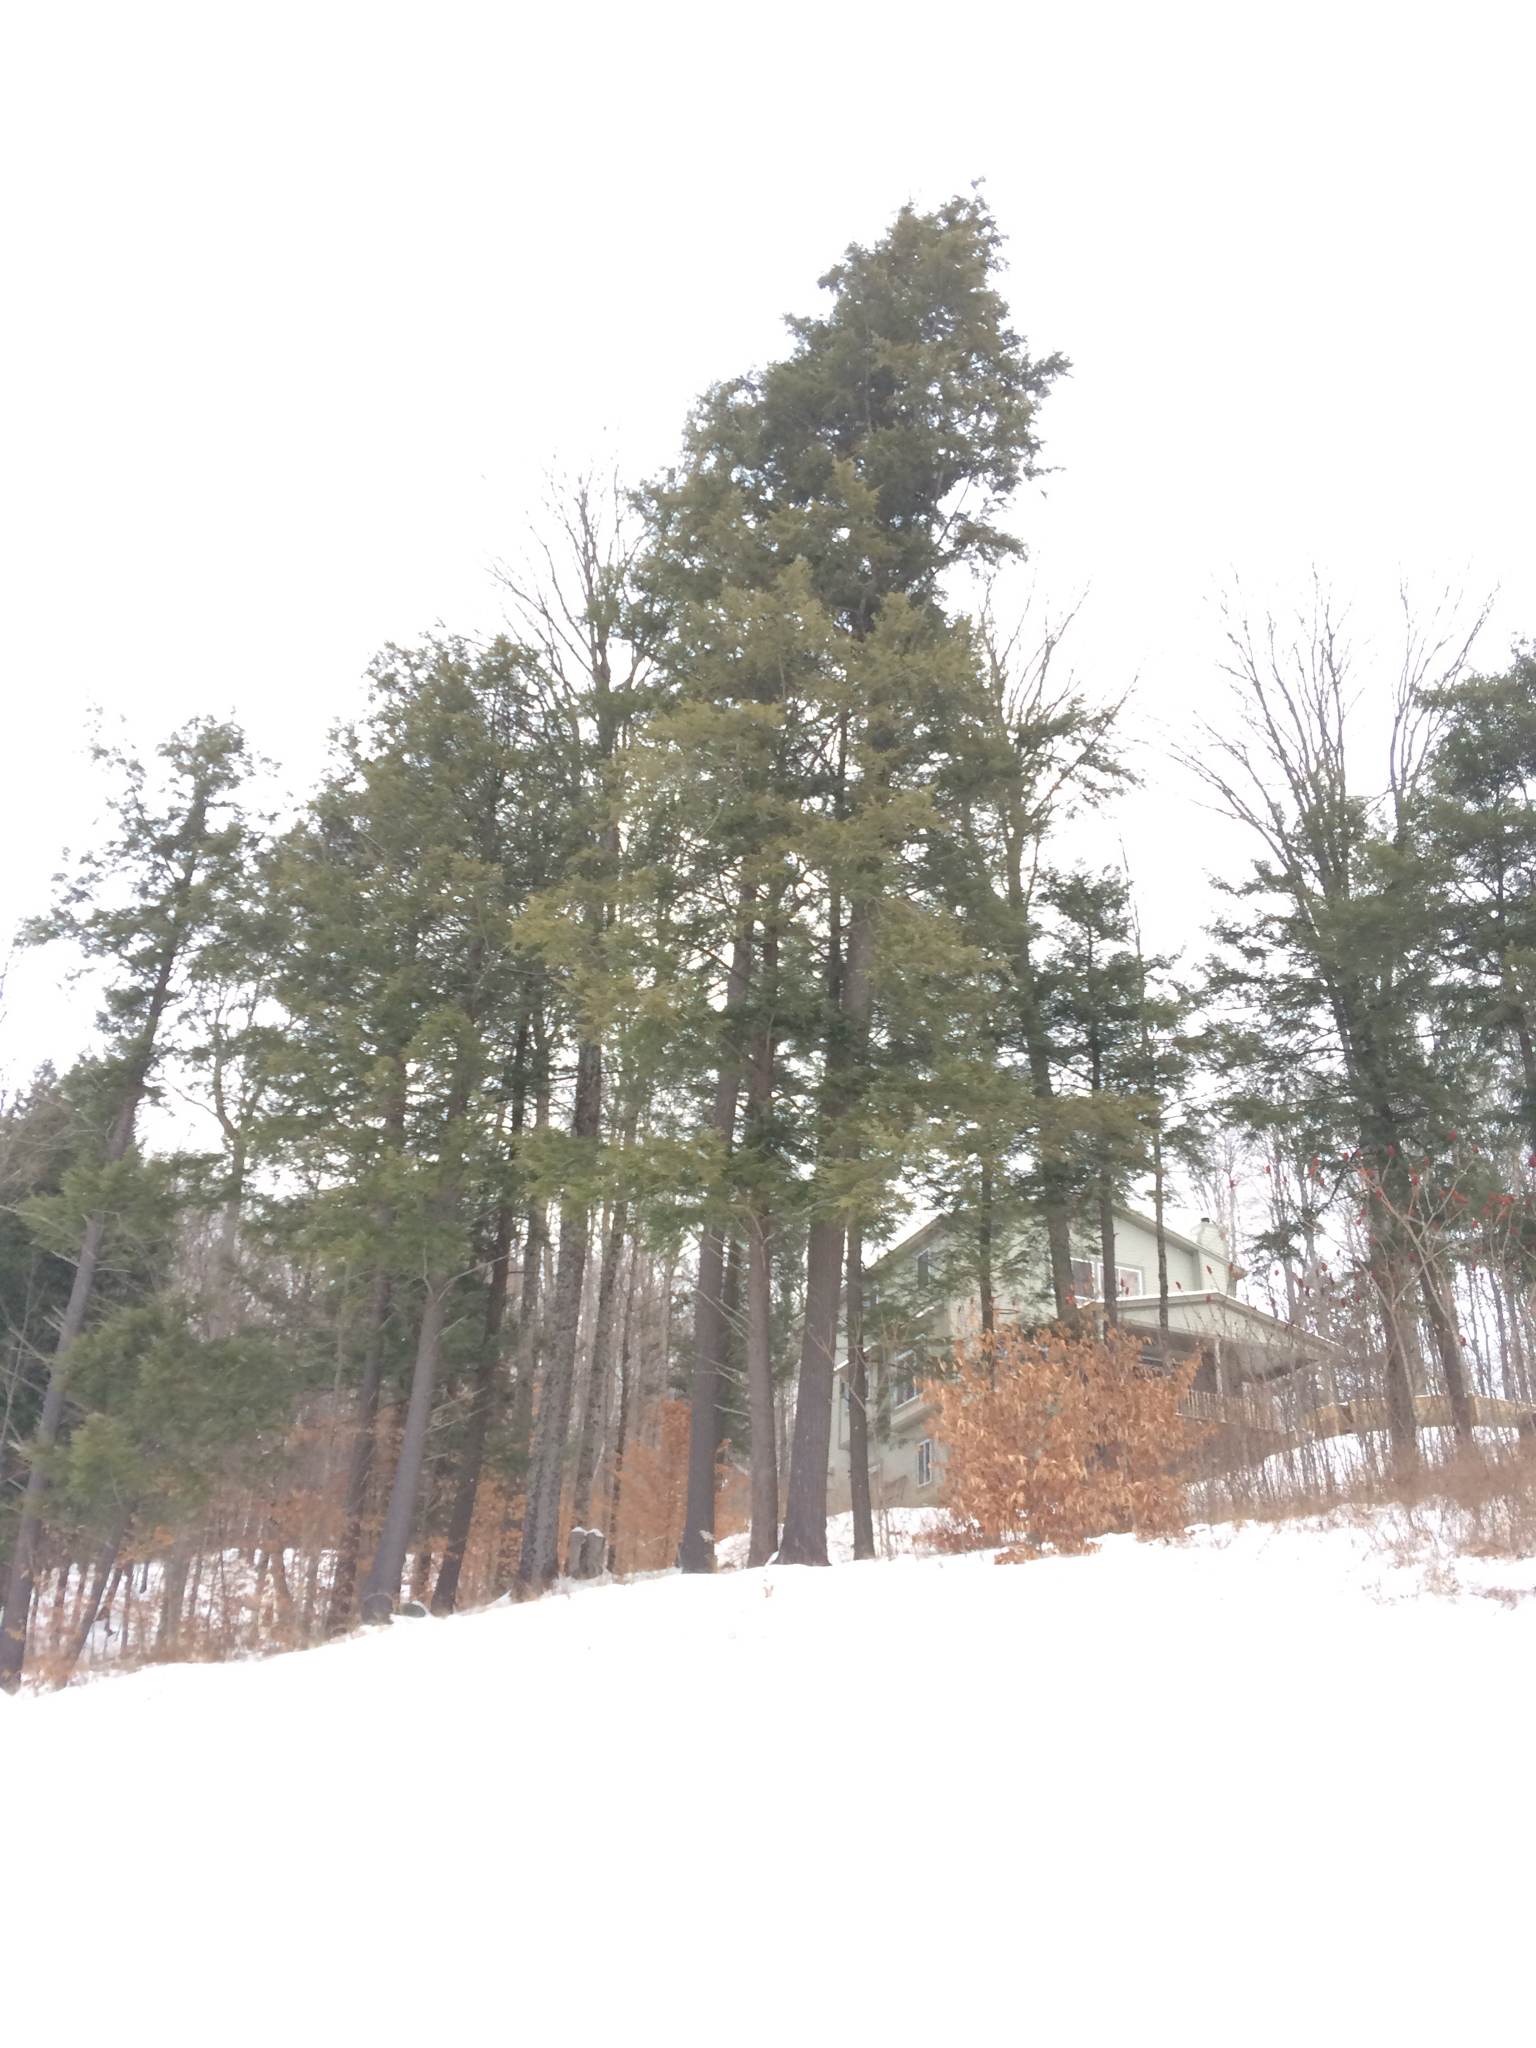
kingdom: Plantae
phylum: Tracheophyta
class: Pinopsida
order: Pinales
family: Pinaceae
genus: Tsuga
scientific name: Tsuga canadensis
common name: Eastern hemlock
